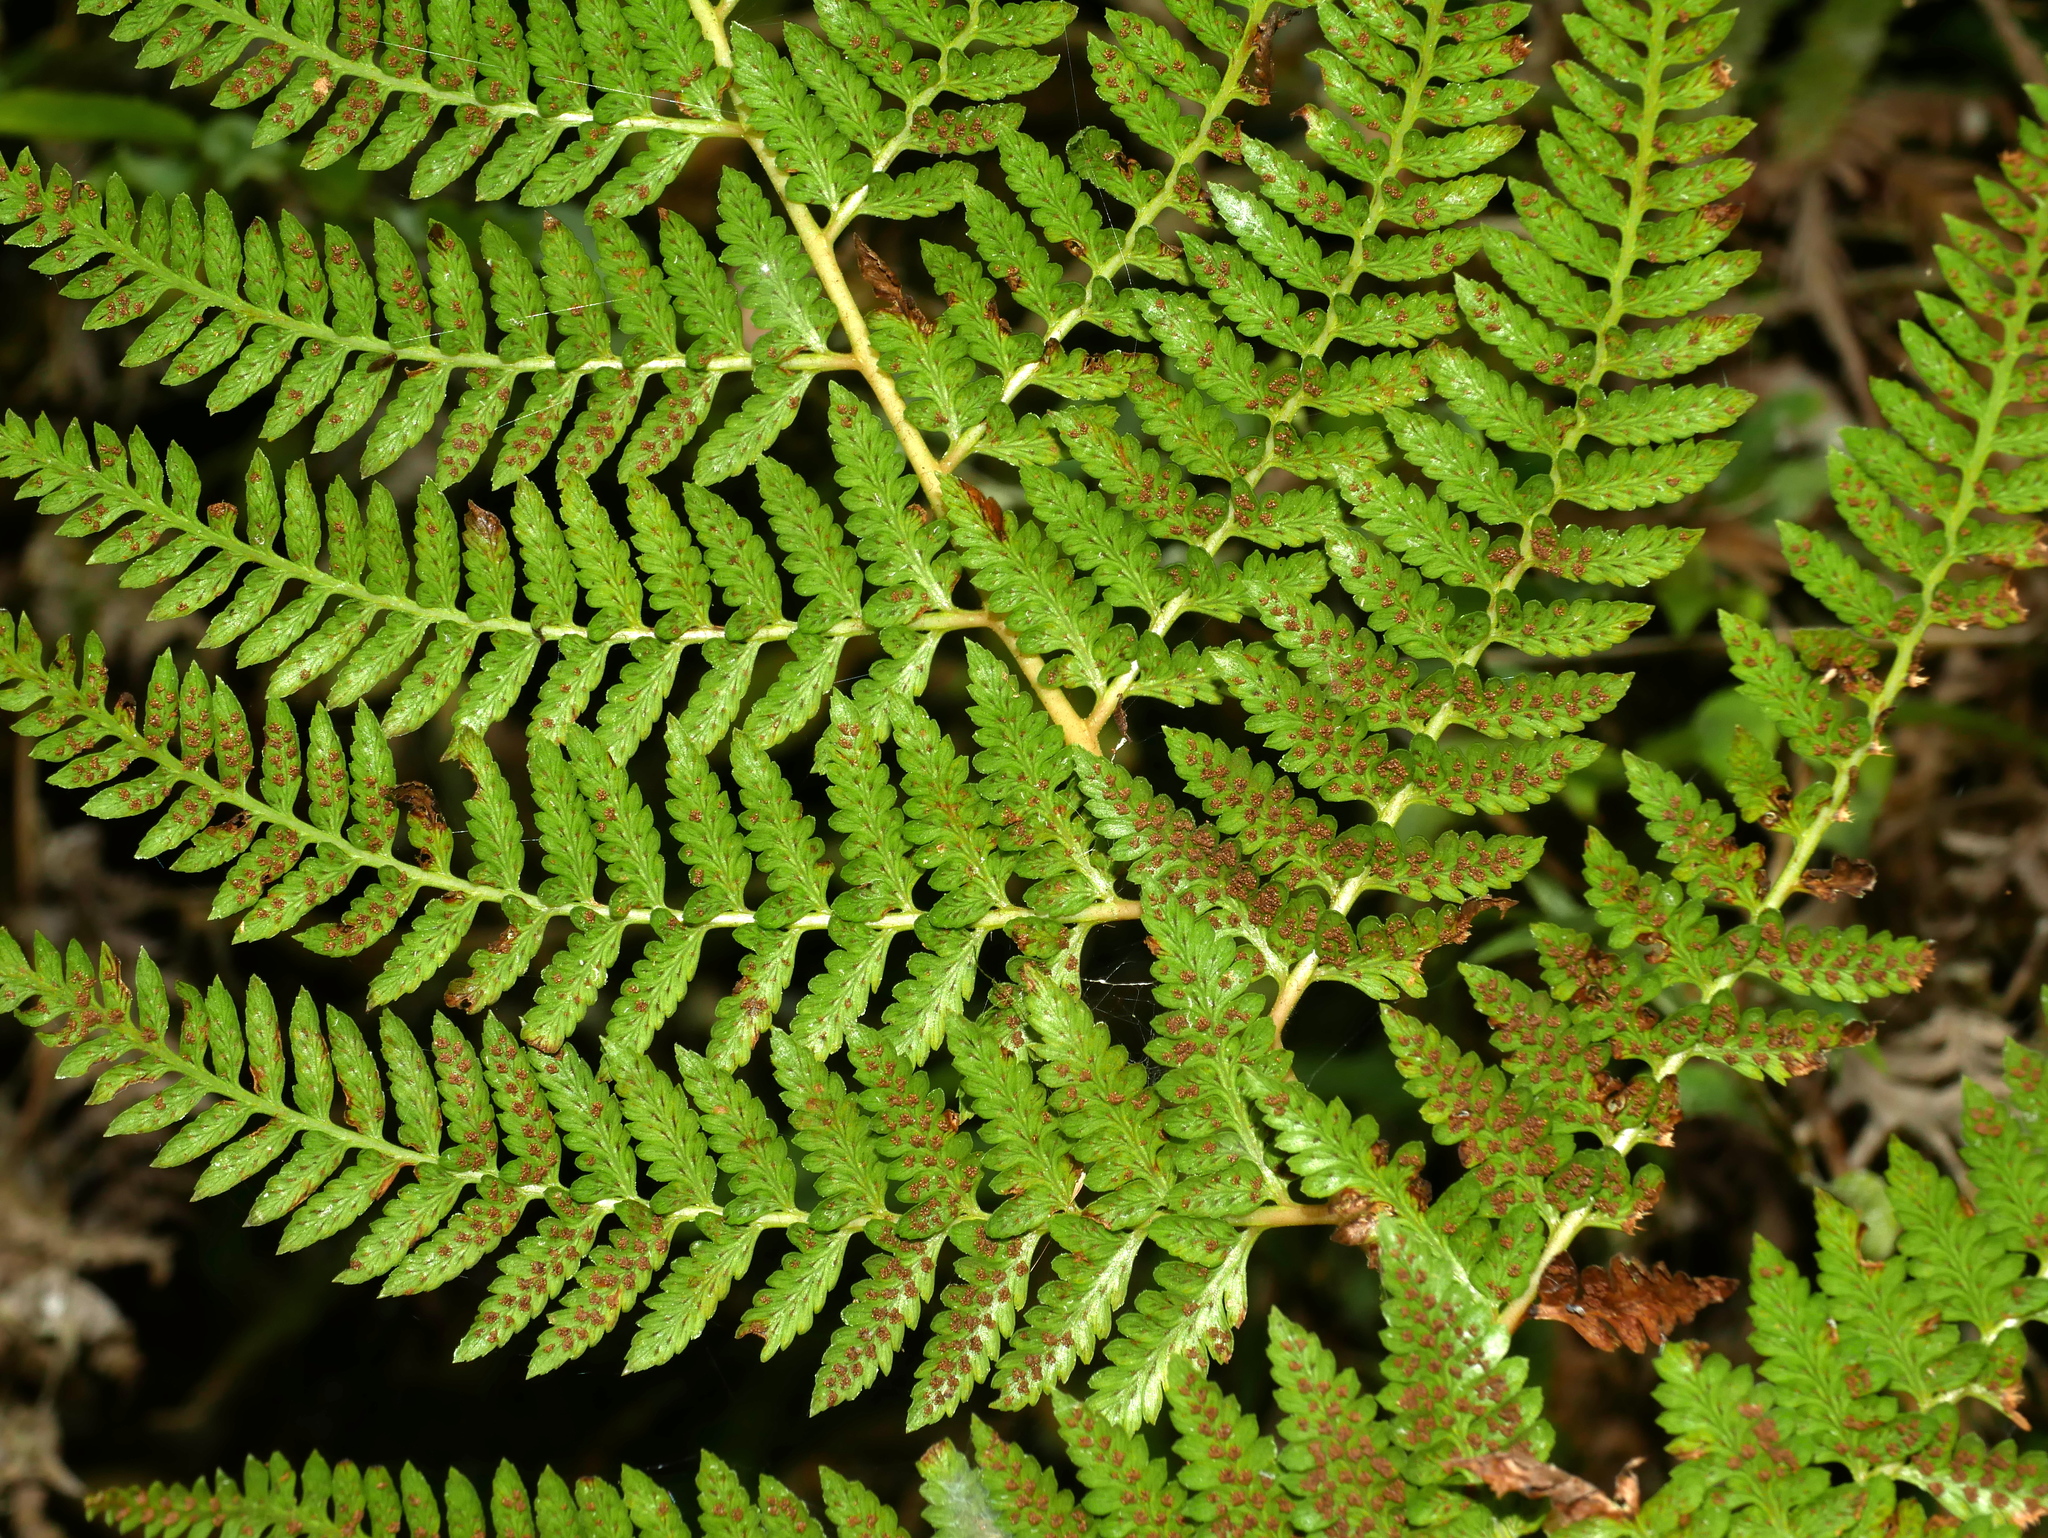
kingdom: Plantae
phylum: Tracheophyta
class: Polypodiopsida
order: Polypodiales
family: Athyriaceae
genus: Athyrium
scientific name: Athyrium drepanopteron
